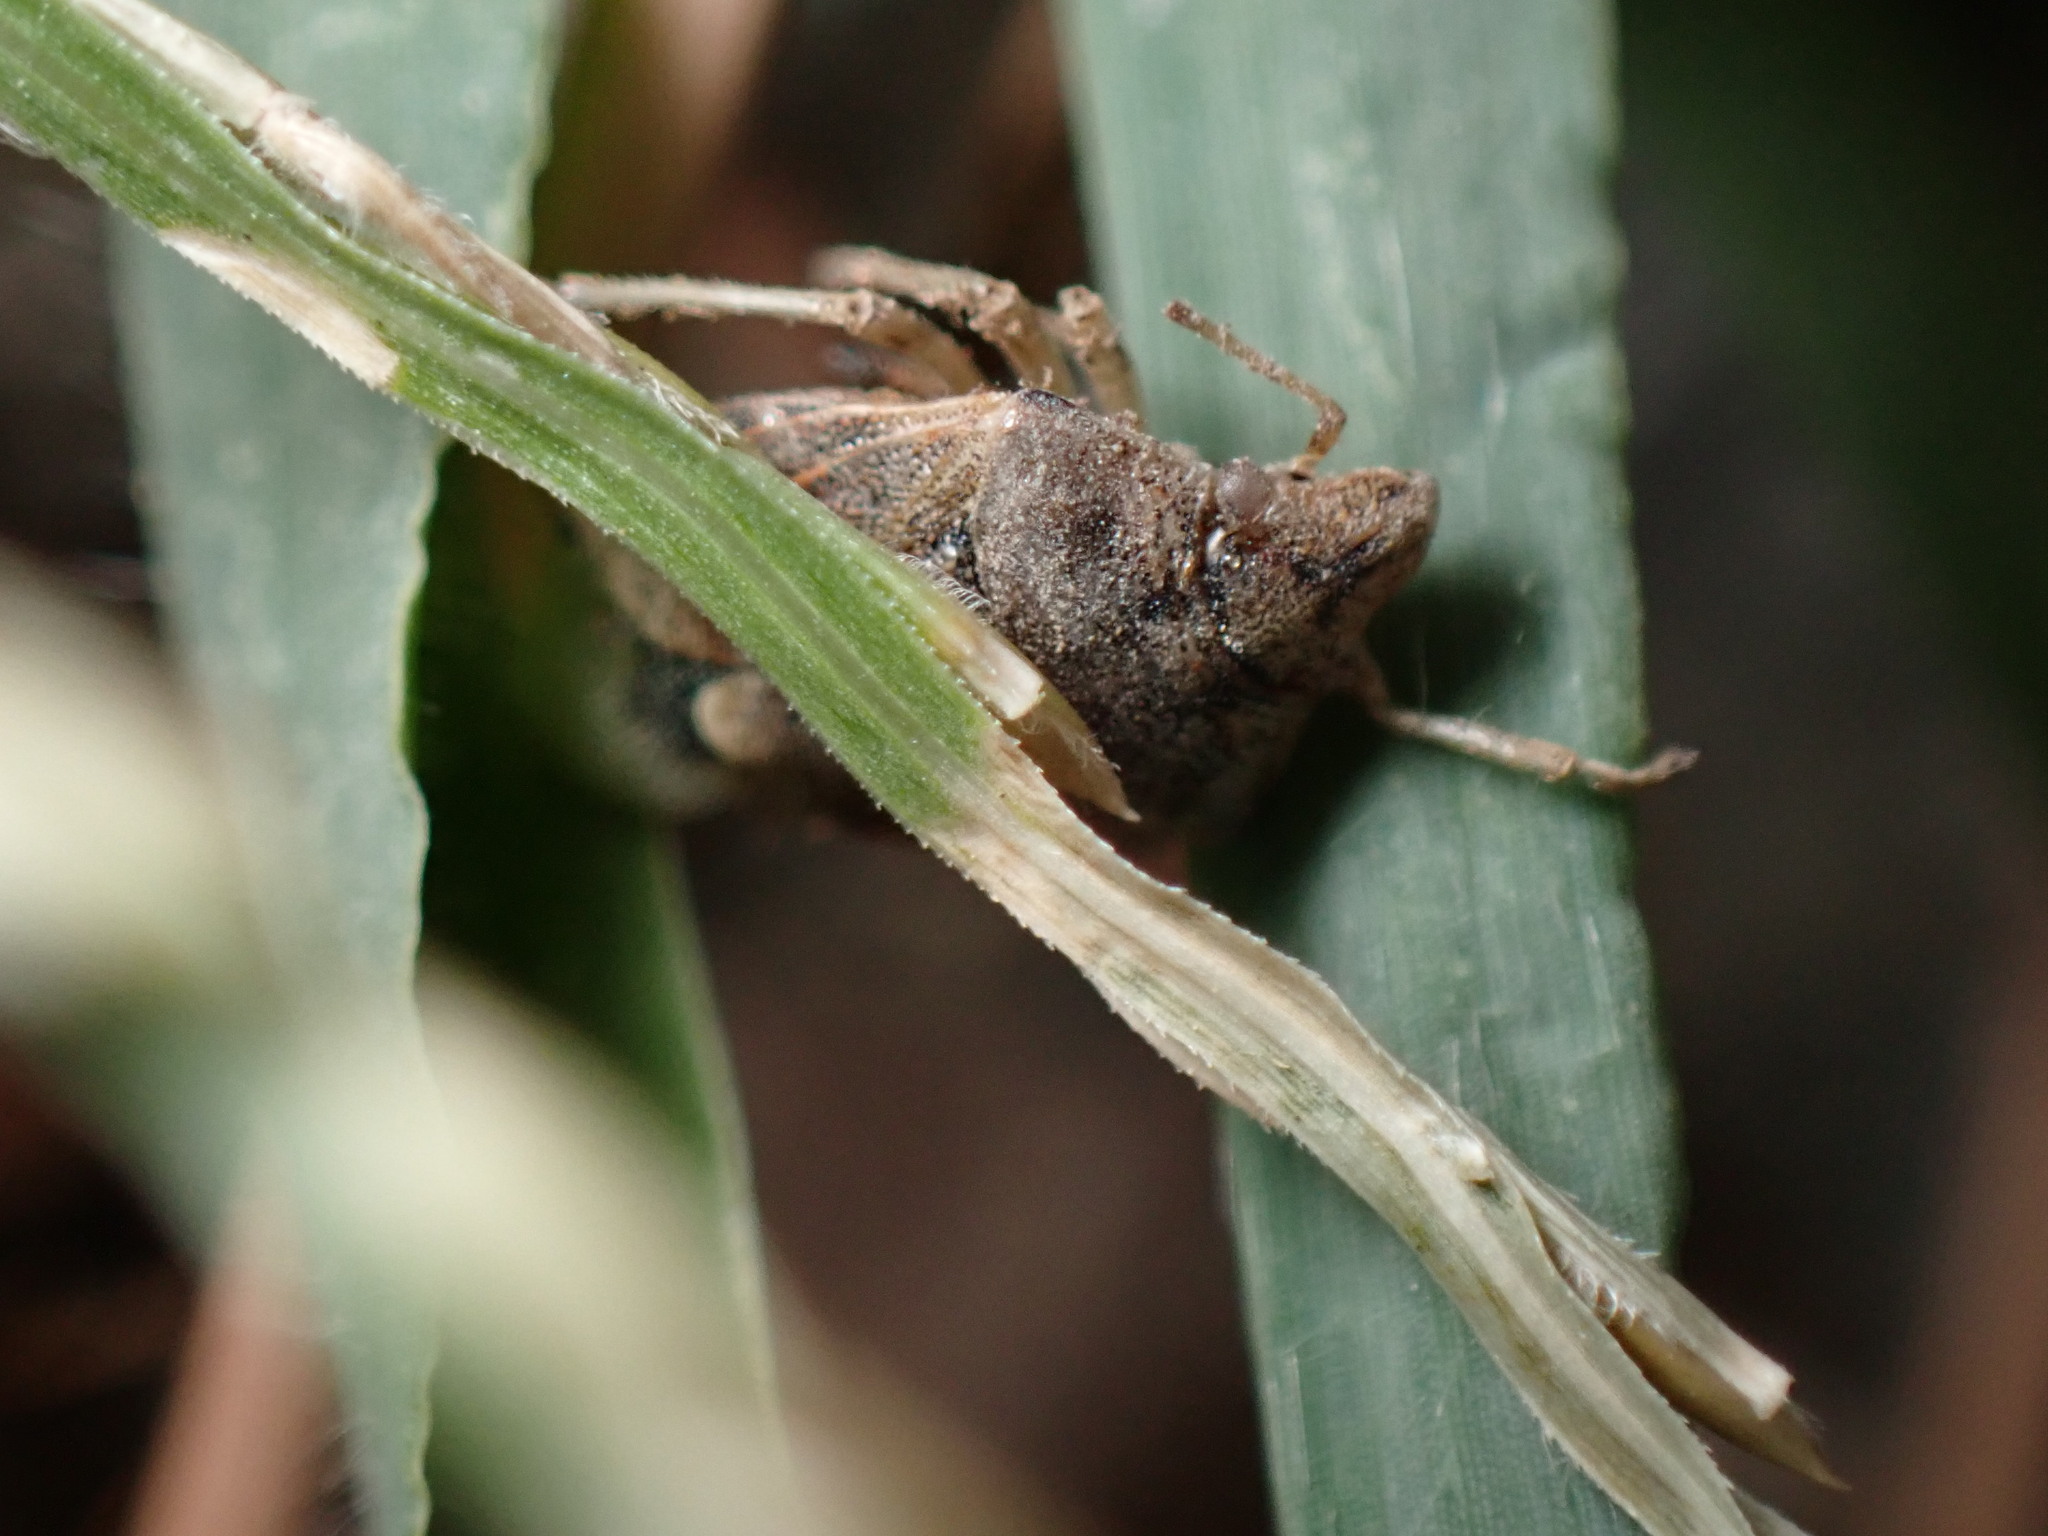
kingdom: Animalia
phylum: Arthropoda
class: Insecta
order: Hemiptera
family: Pentatomidae
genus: Holcogaster
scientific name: Holcogaster fibulata
